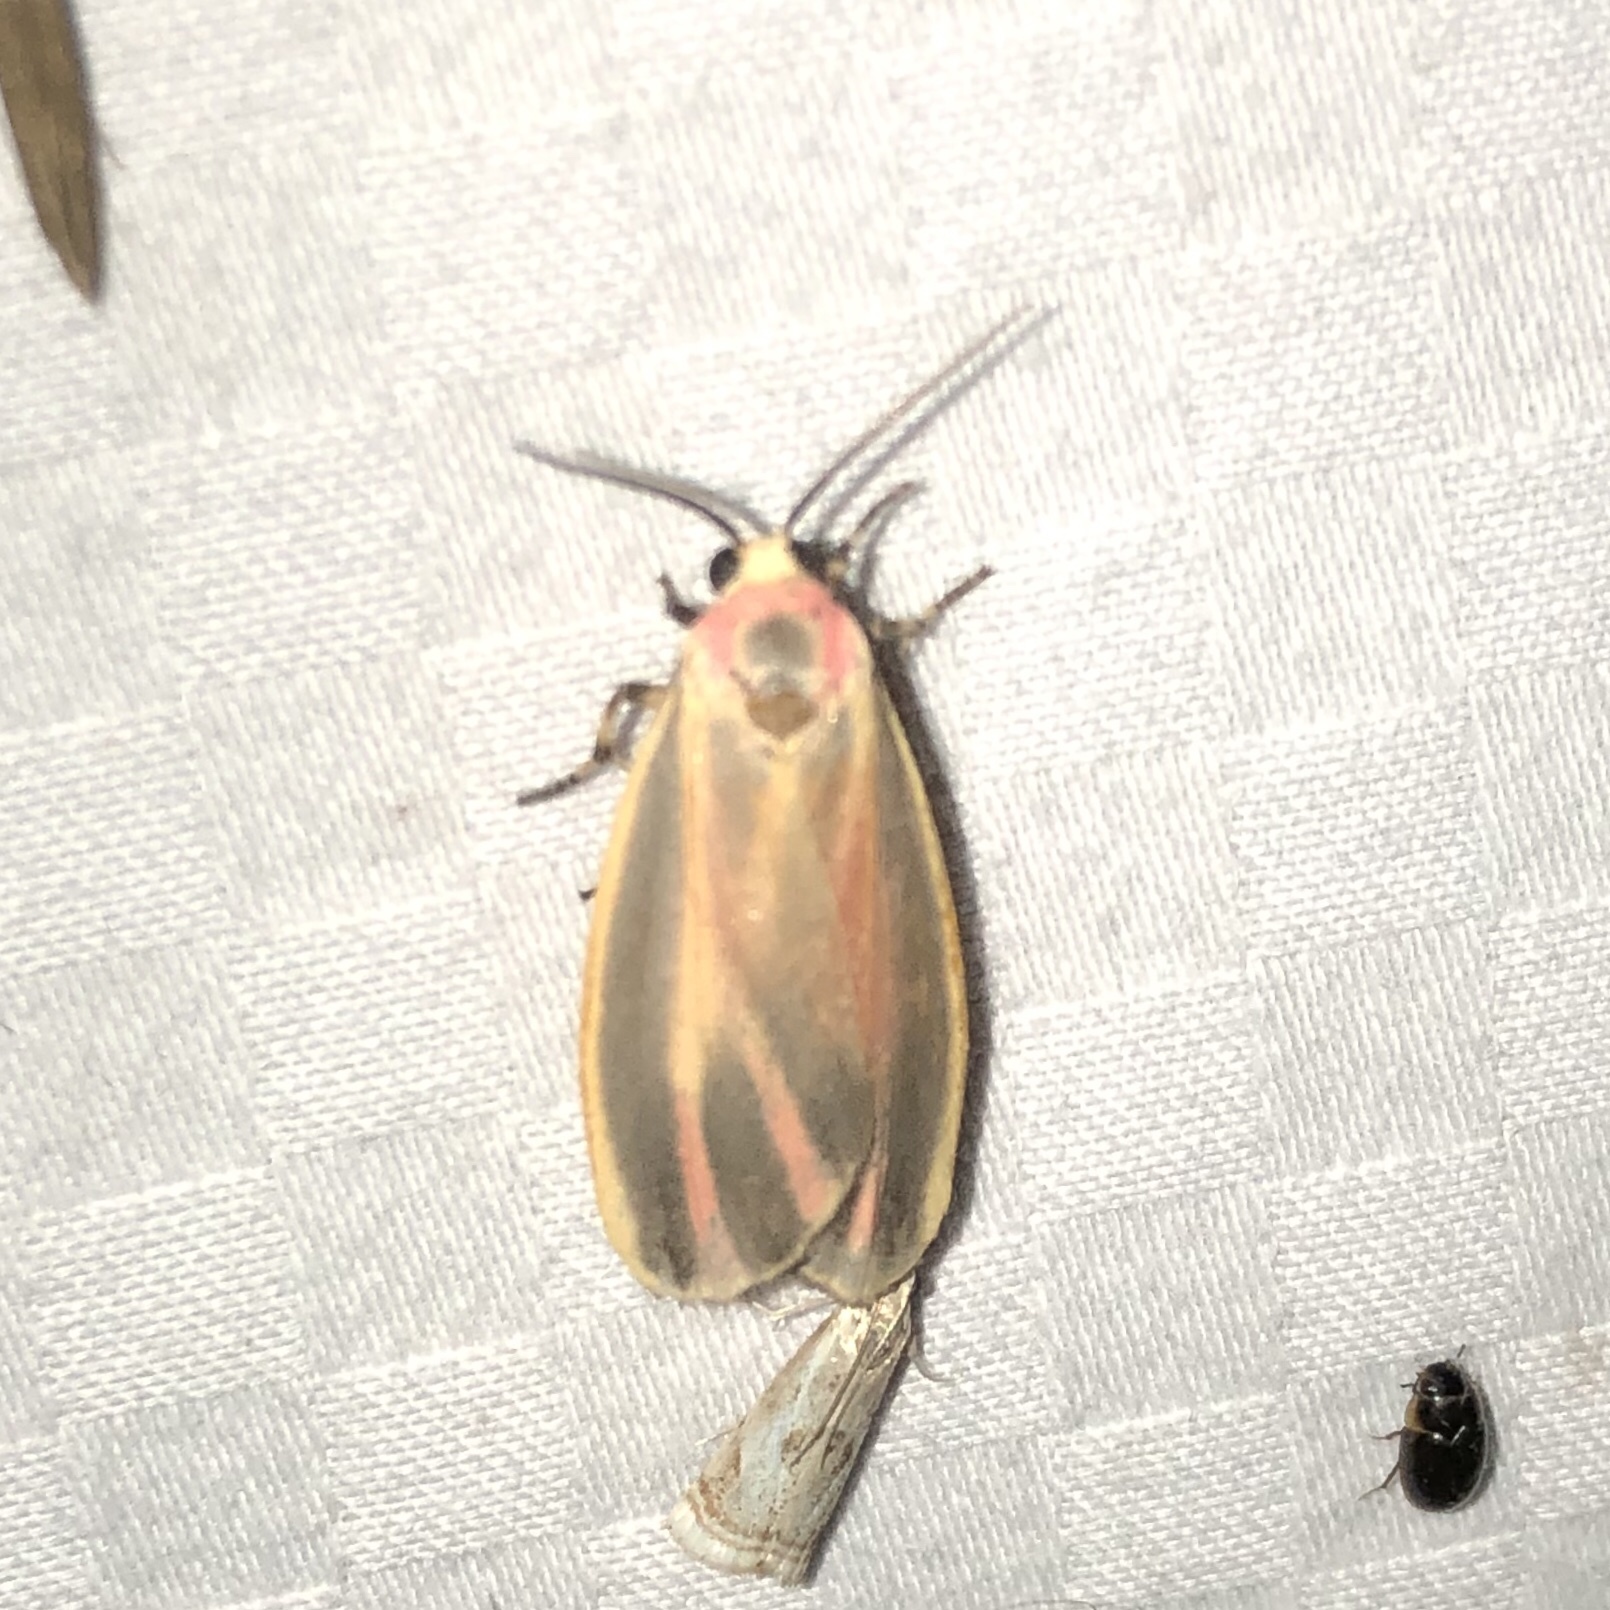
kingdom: Animalia
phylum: Arthropoda
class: Insecta
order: Lepidoptera
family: Erebidae
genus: Hypoprepia
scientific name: Hypoprepia fucosa
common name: Painted lichen moth
